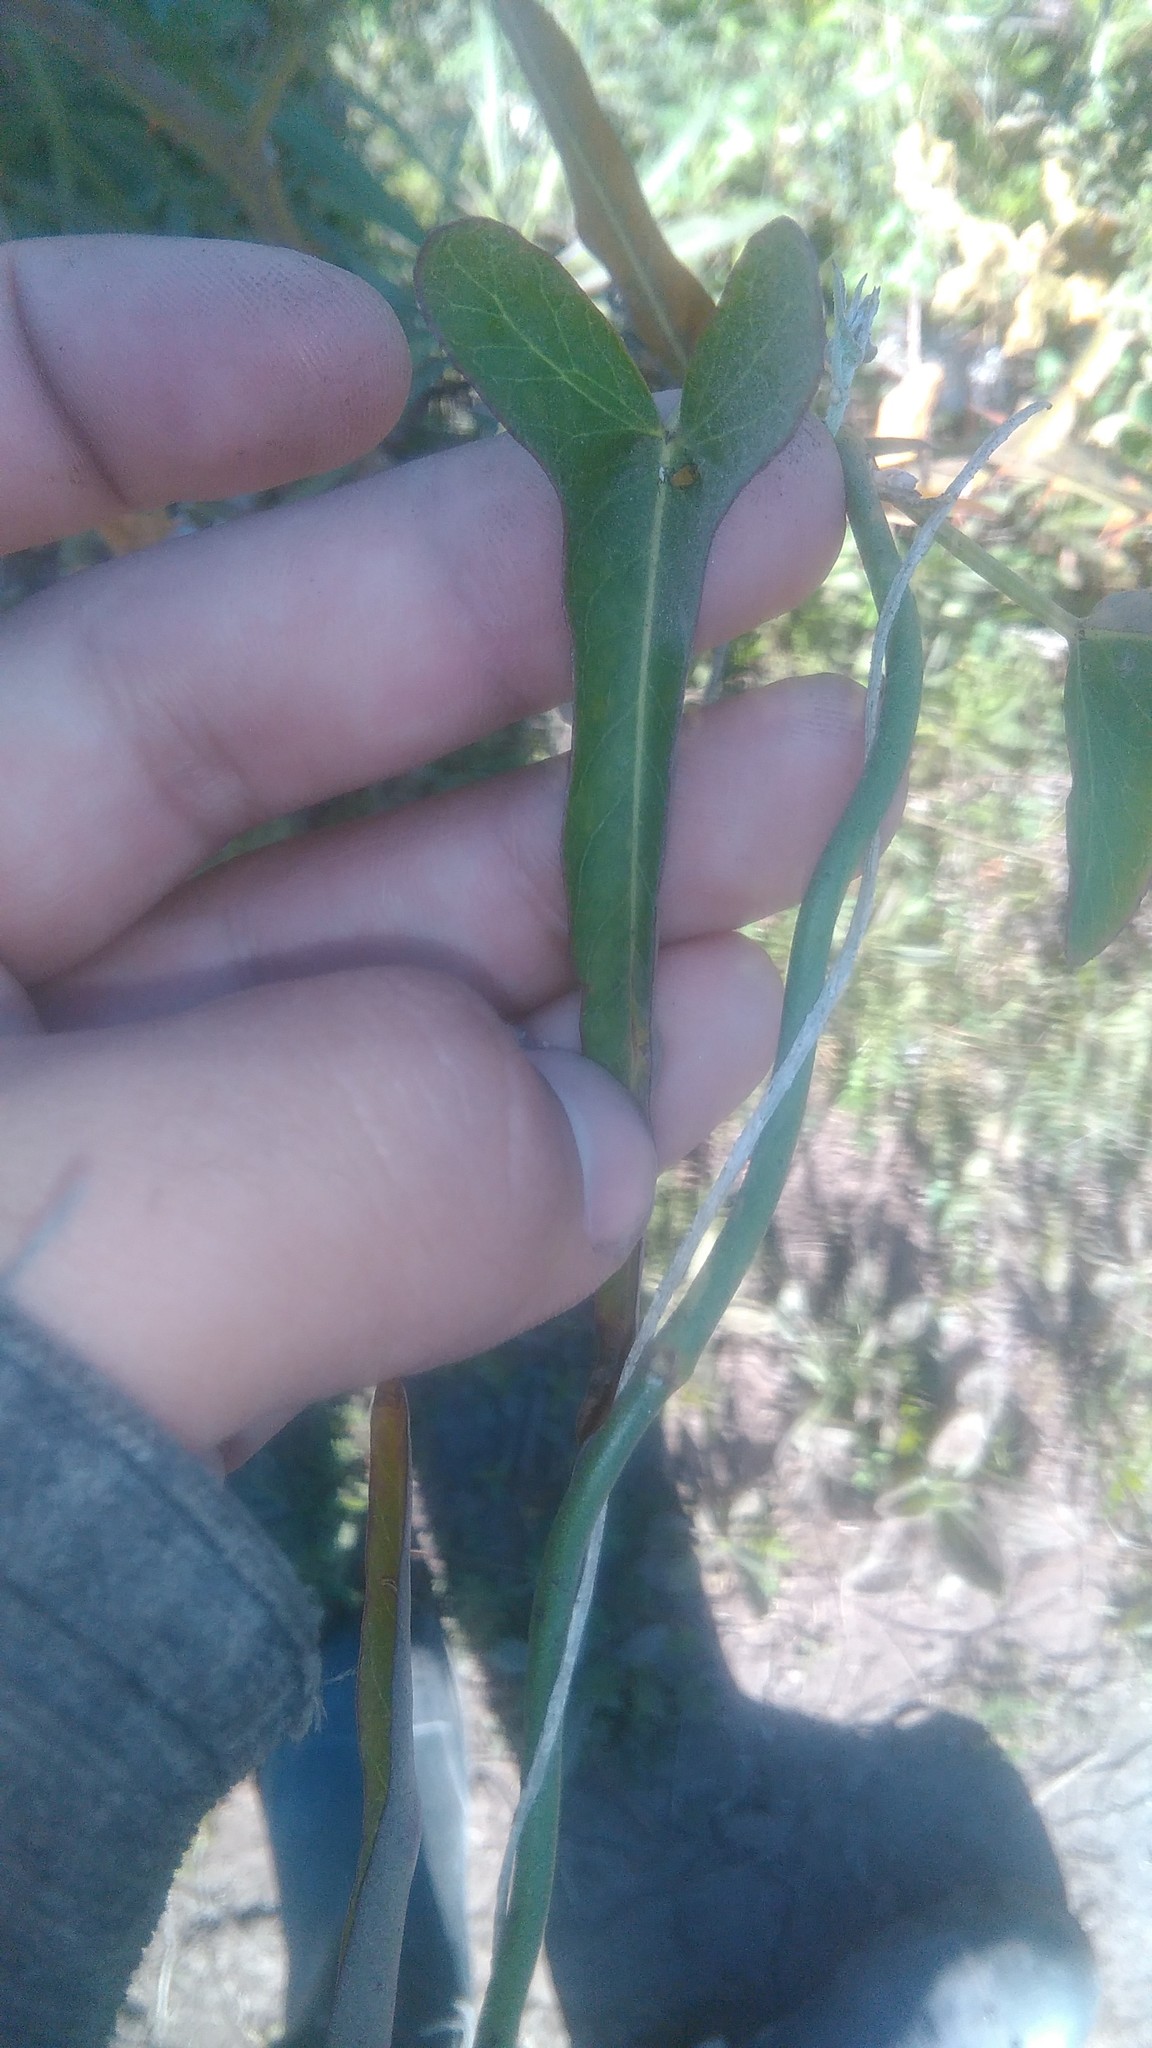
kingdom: Plantae
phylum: Tracheophyta
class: Magnoliopsida
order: Gentianales
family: Apocynaceae
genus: Araujia
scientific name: Araujia angustifolia
